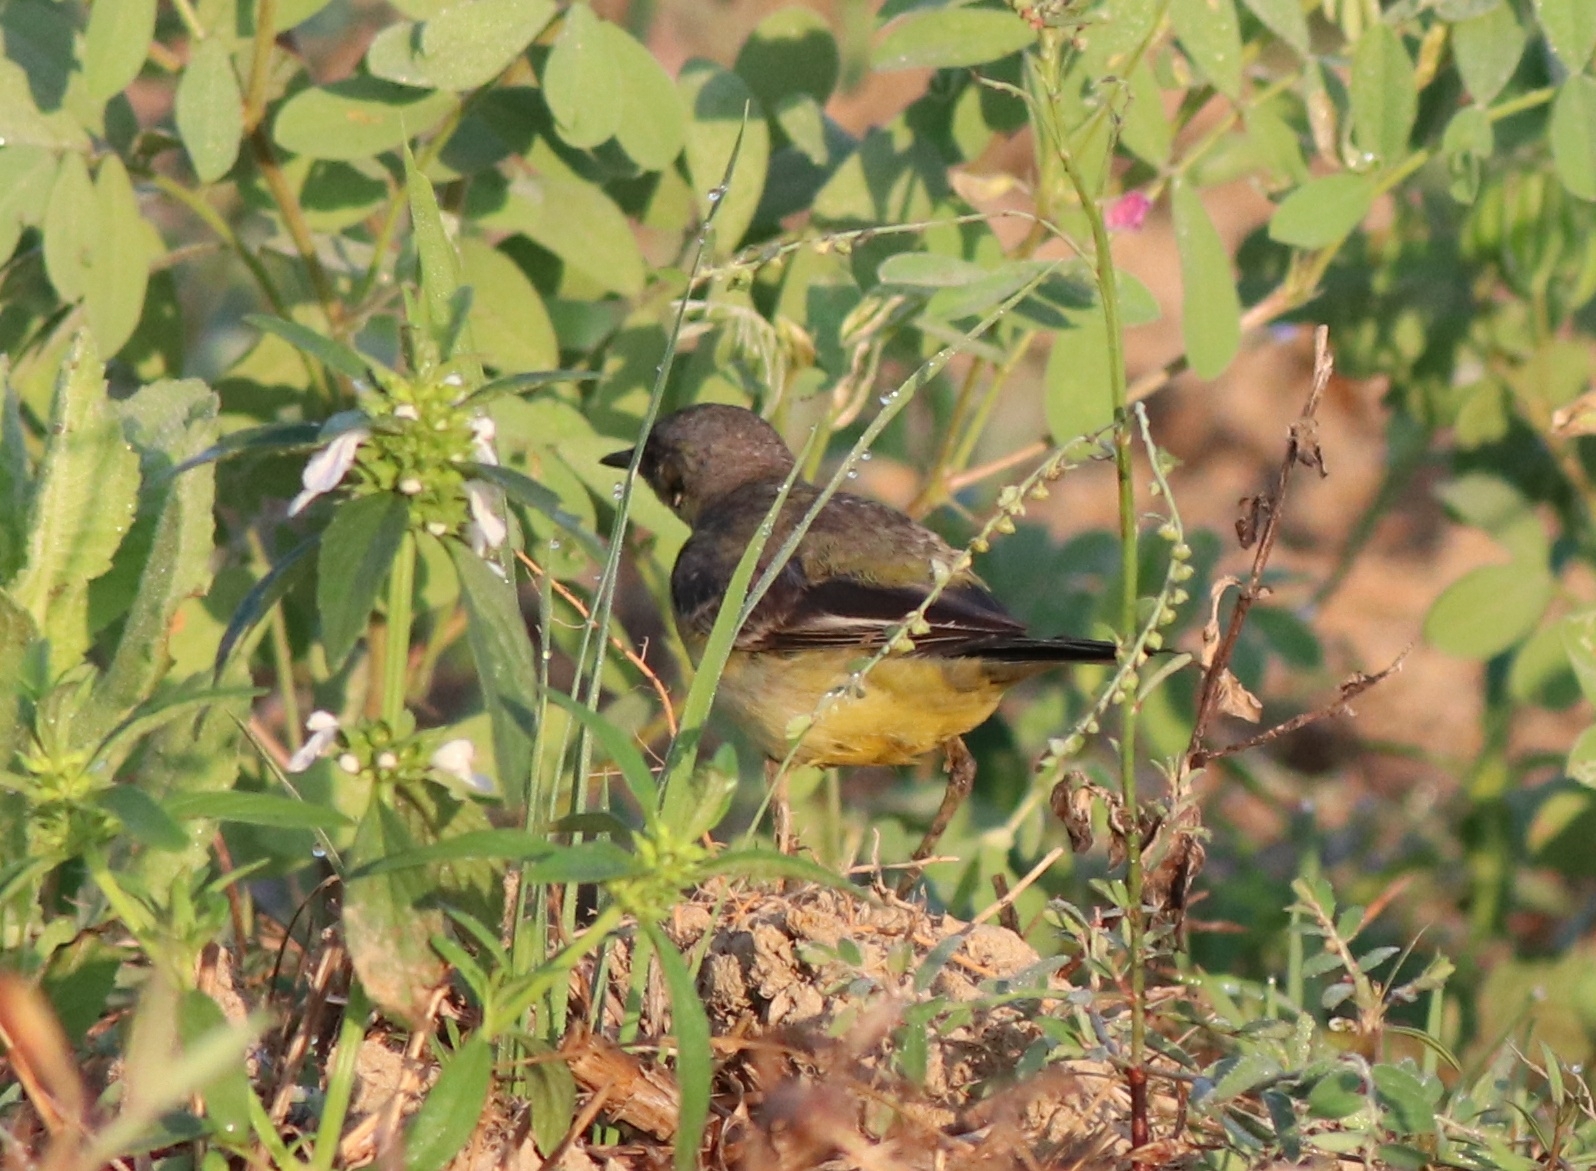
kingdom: Animalia
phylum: Chordata
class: Aves
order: Passeriformes
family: Motacillidae
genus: Motacilla
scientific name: Motacilla flava
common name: Western yellow wagtail
